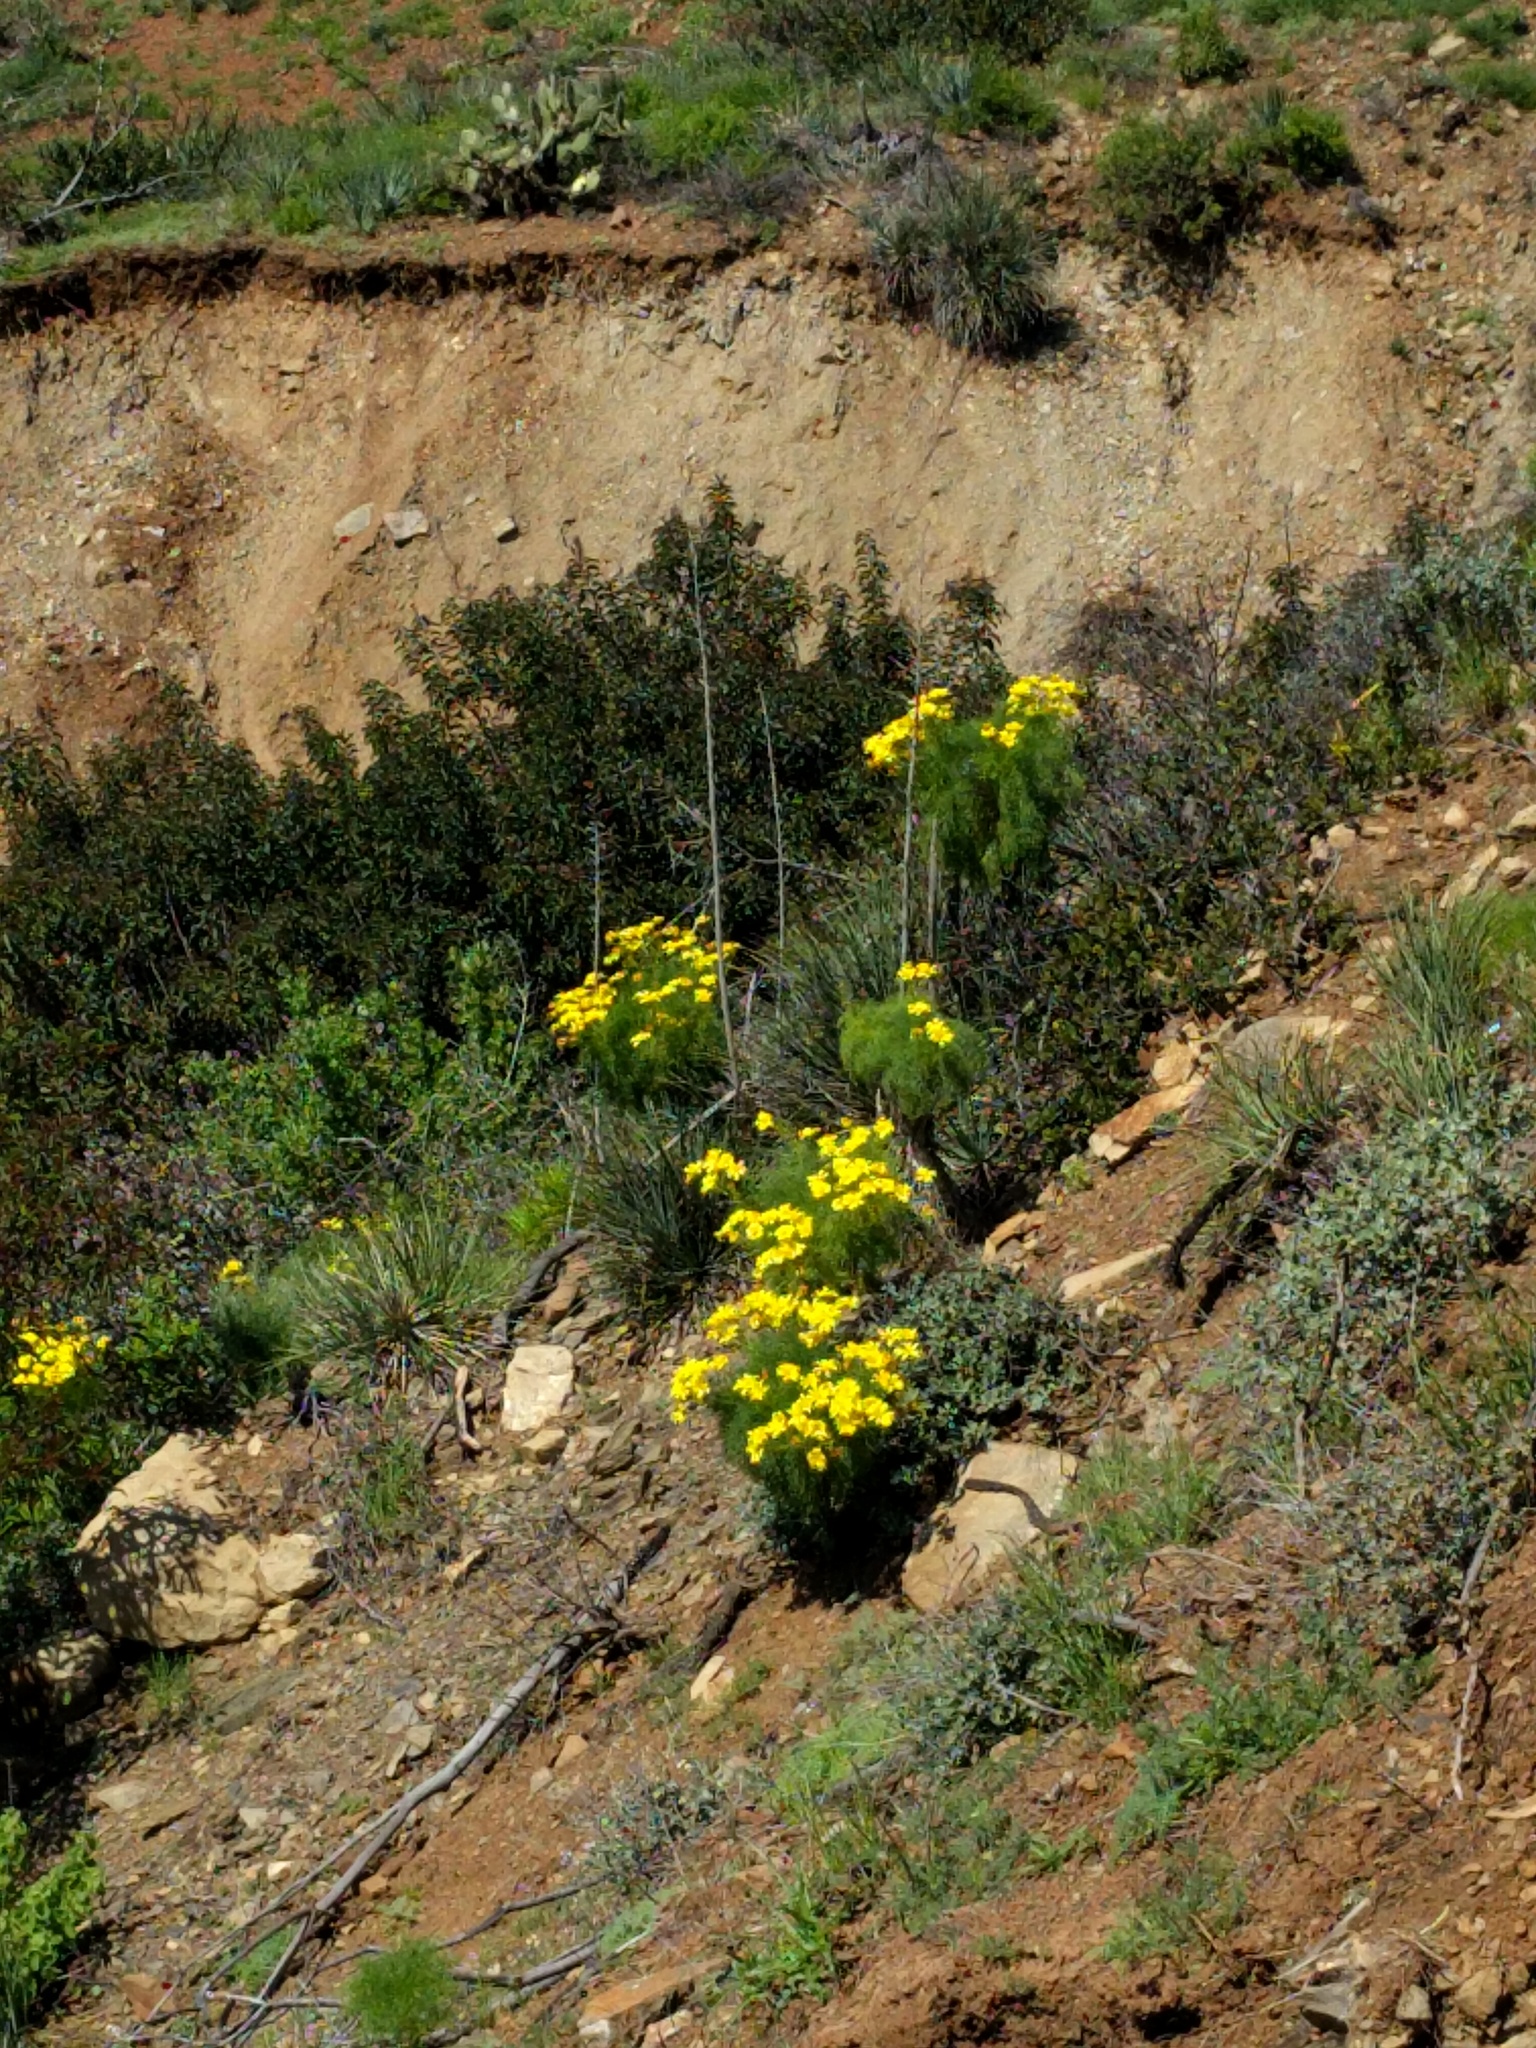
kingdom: Plantae
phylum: Tracheophyta
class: Magnoliopsida
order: Asterales
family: Asteraceae
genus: Coreopsis
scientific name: Coreopsis gigantea
